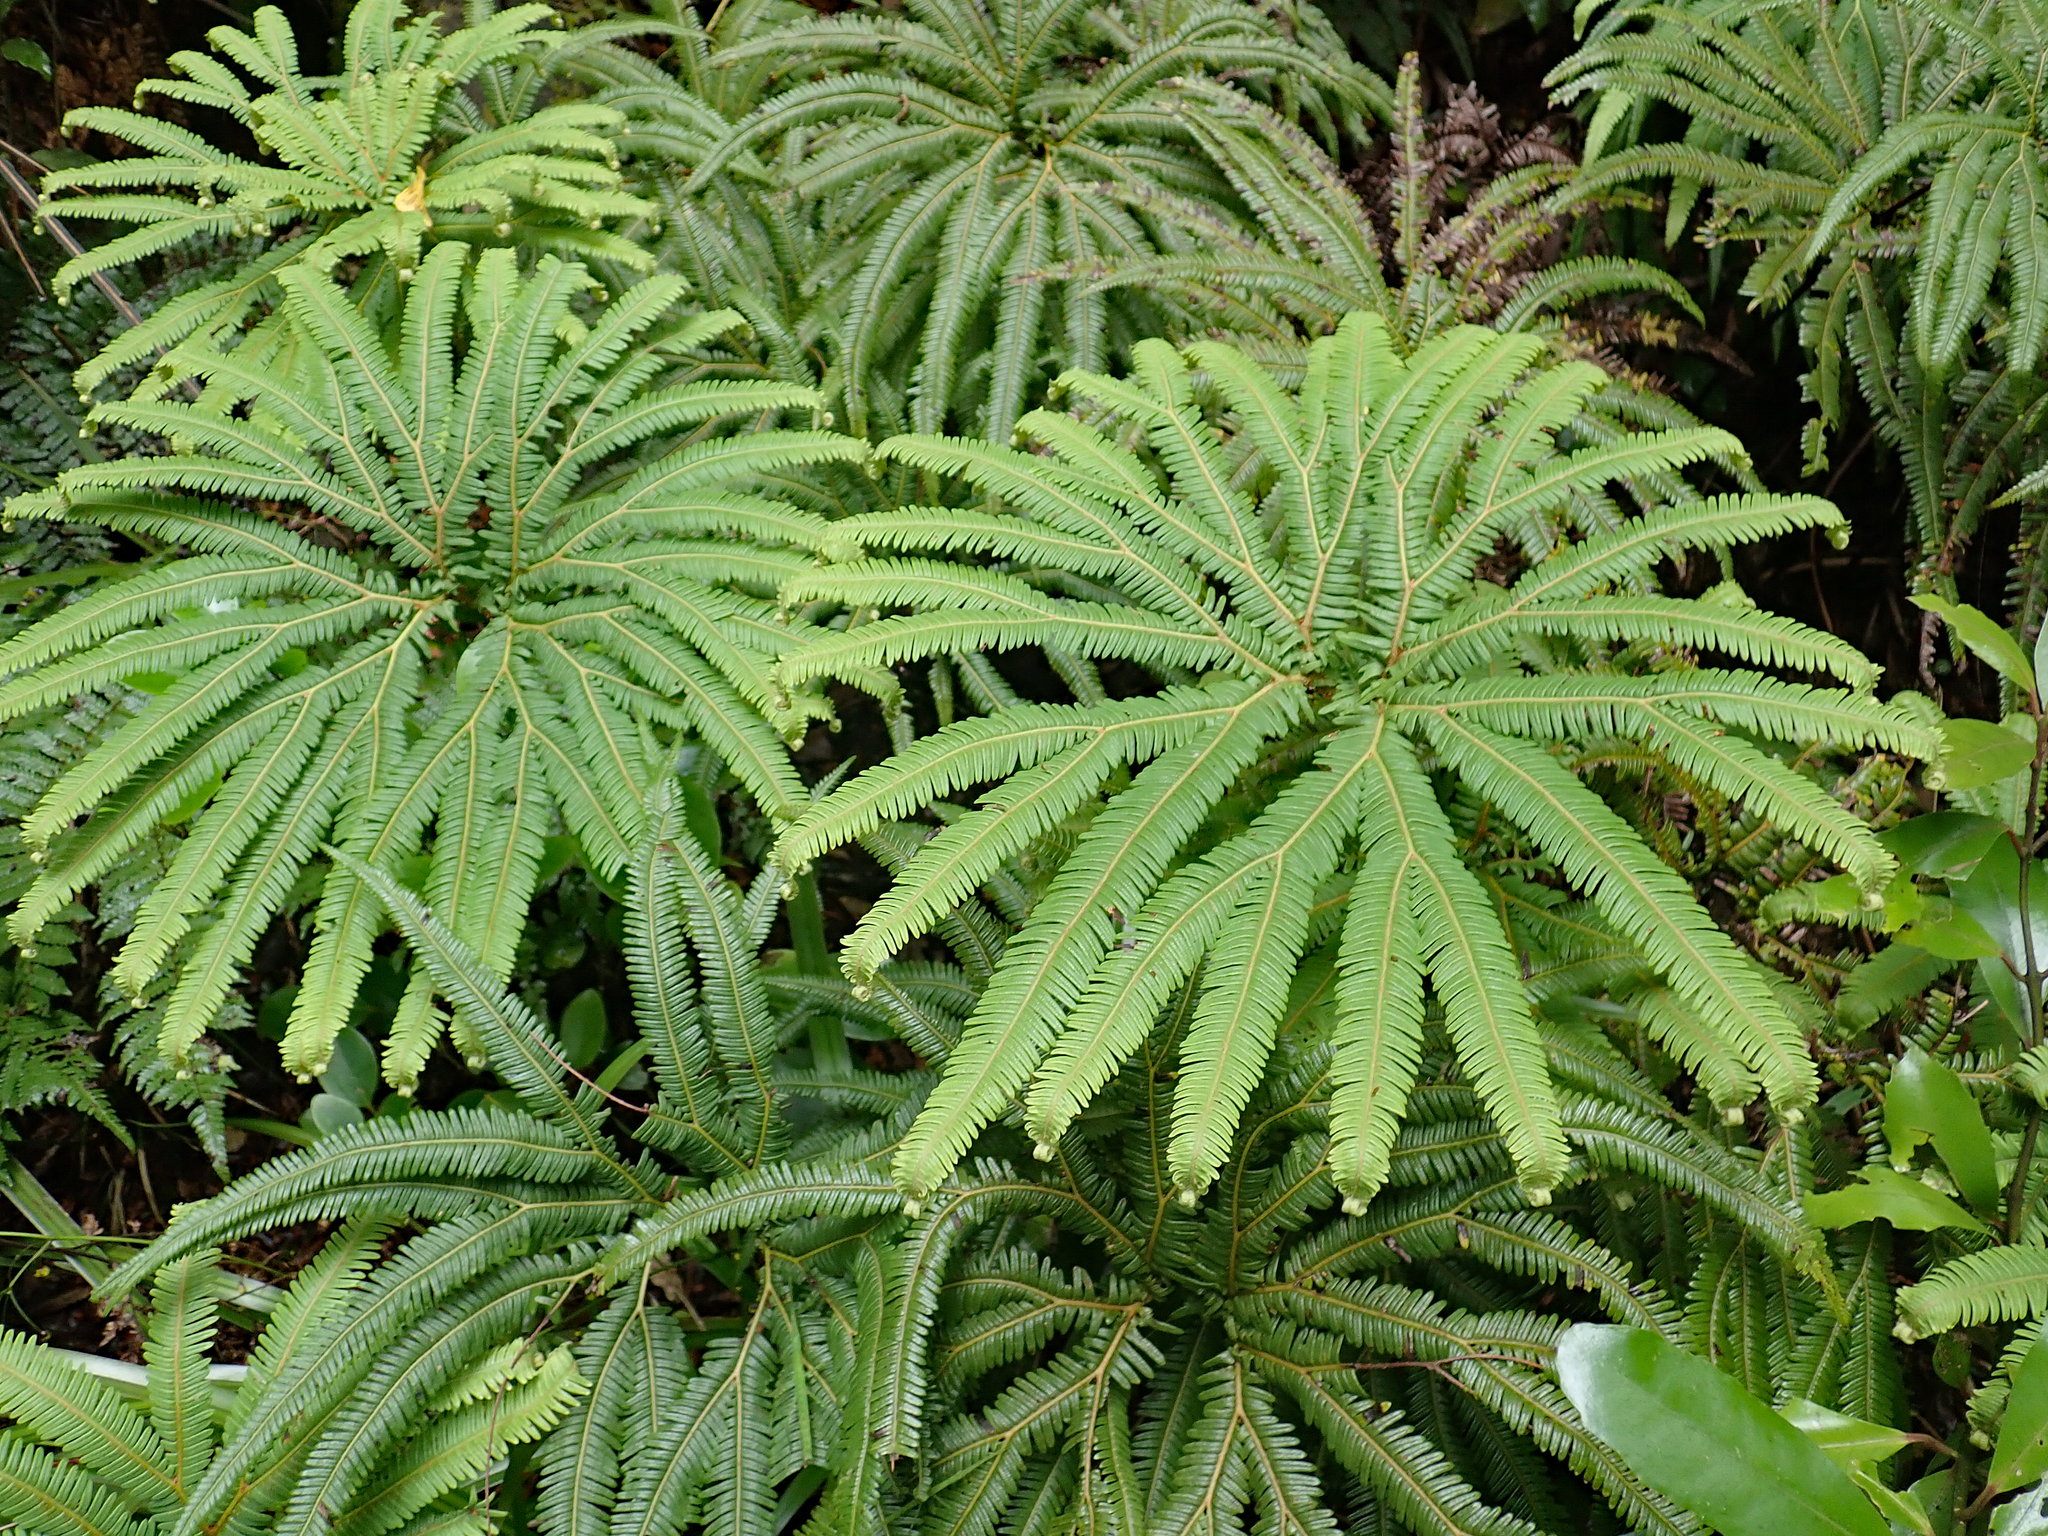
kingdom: Plantae
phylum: Tracheophyta
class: Polypodiopsida
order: Gleicheniales
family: Gleicheniaceae
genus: Sticherus
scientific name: Sticherus cunninghamii
